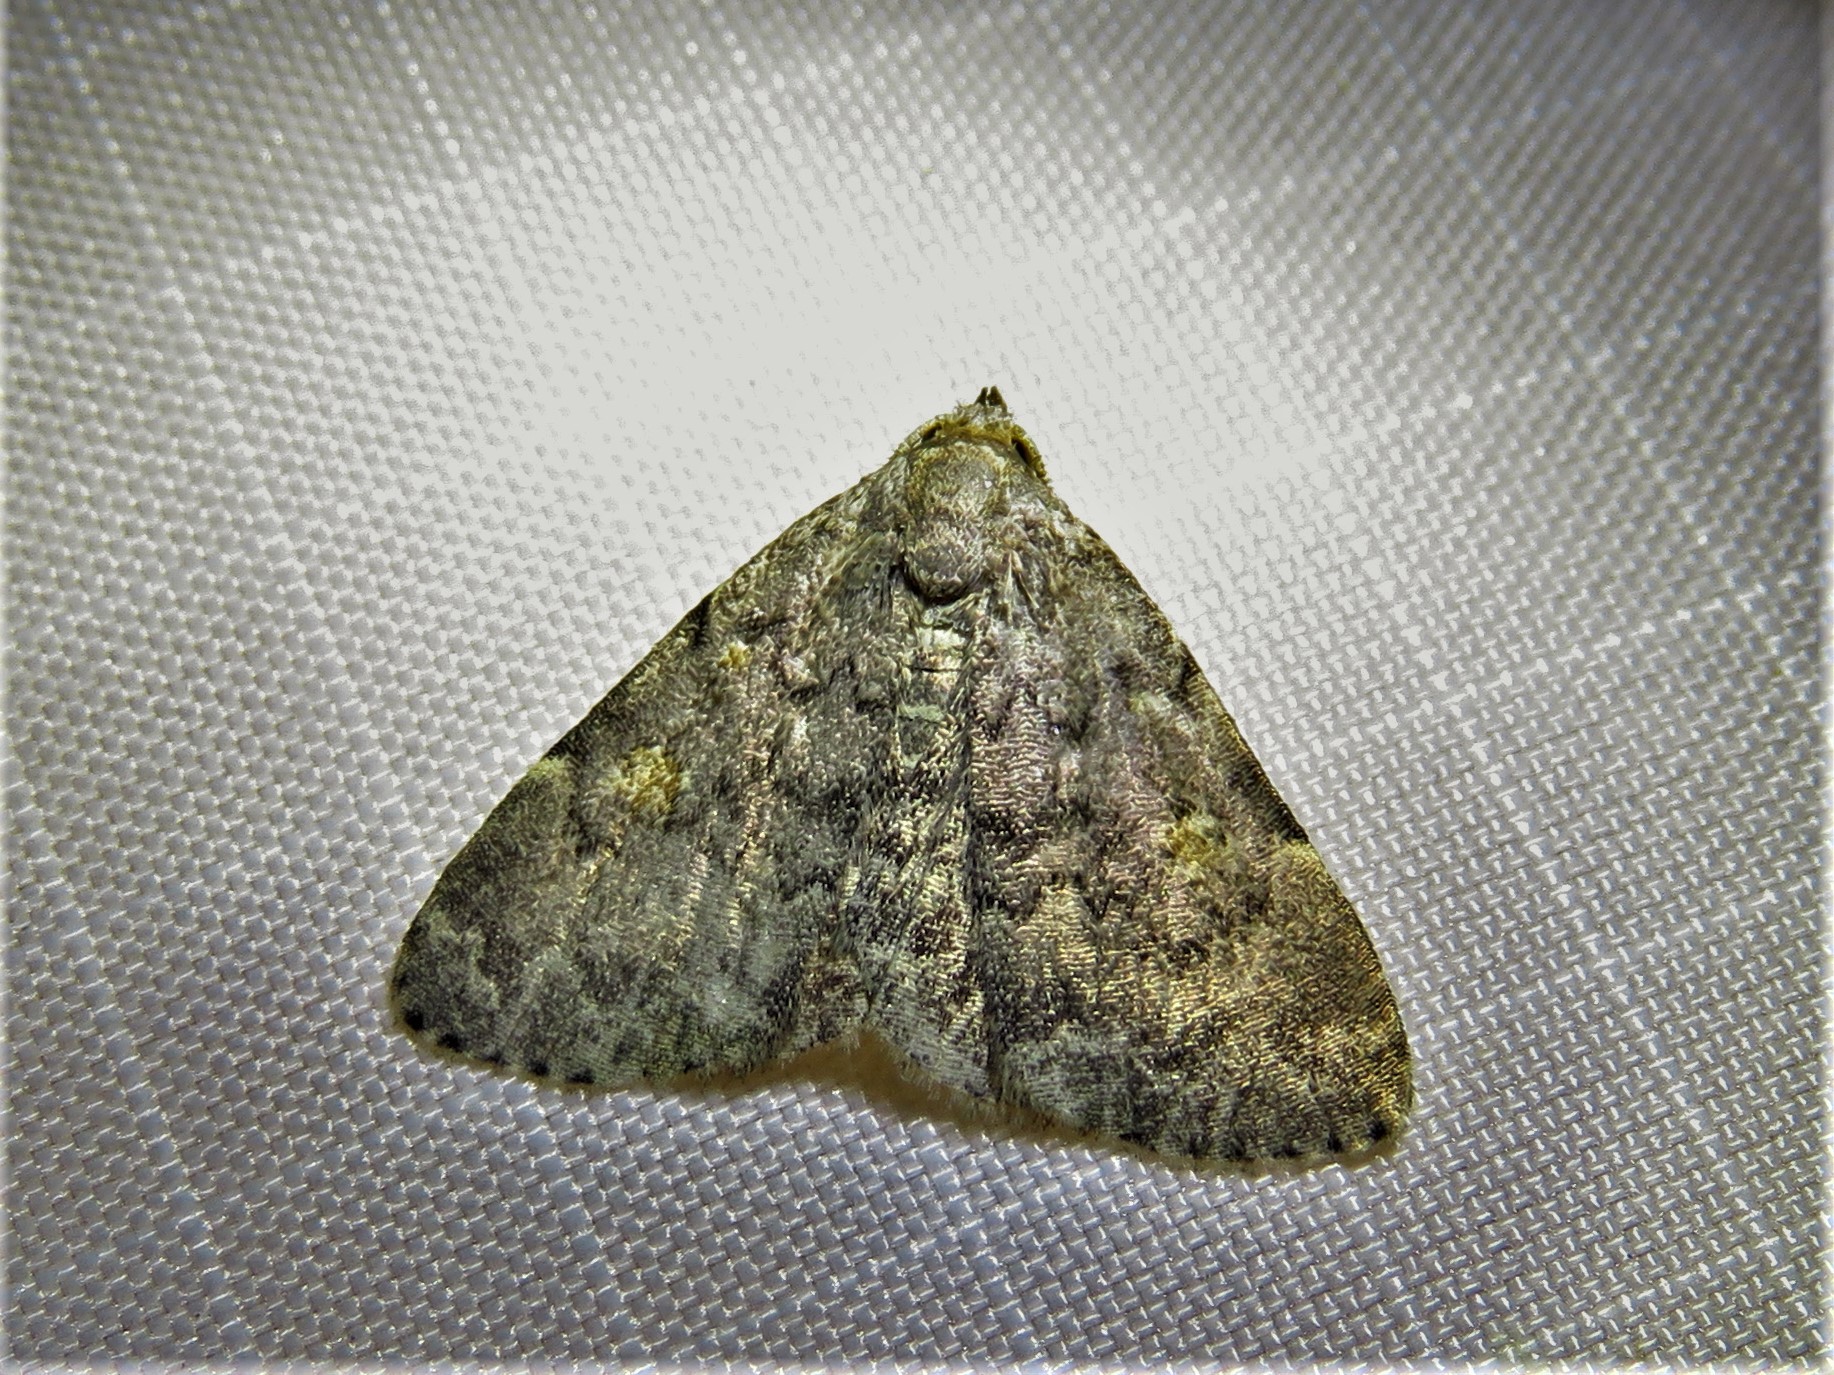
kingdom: Animalia
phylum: Arthropoda
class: Insecta
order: Lepidoptera
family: Erebidae
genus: Idia
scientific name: Idia aemula
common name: Common idia moth
